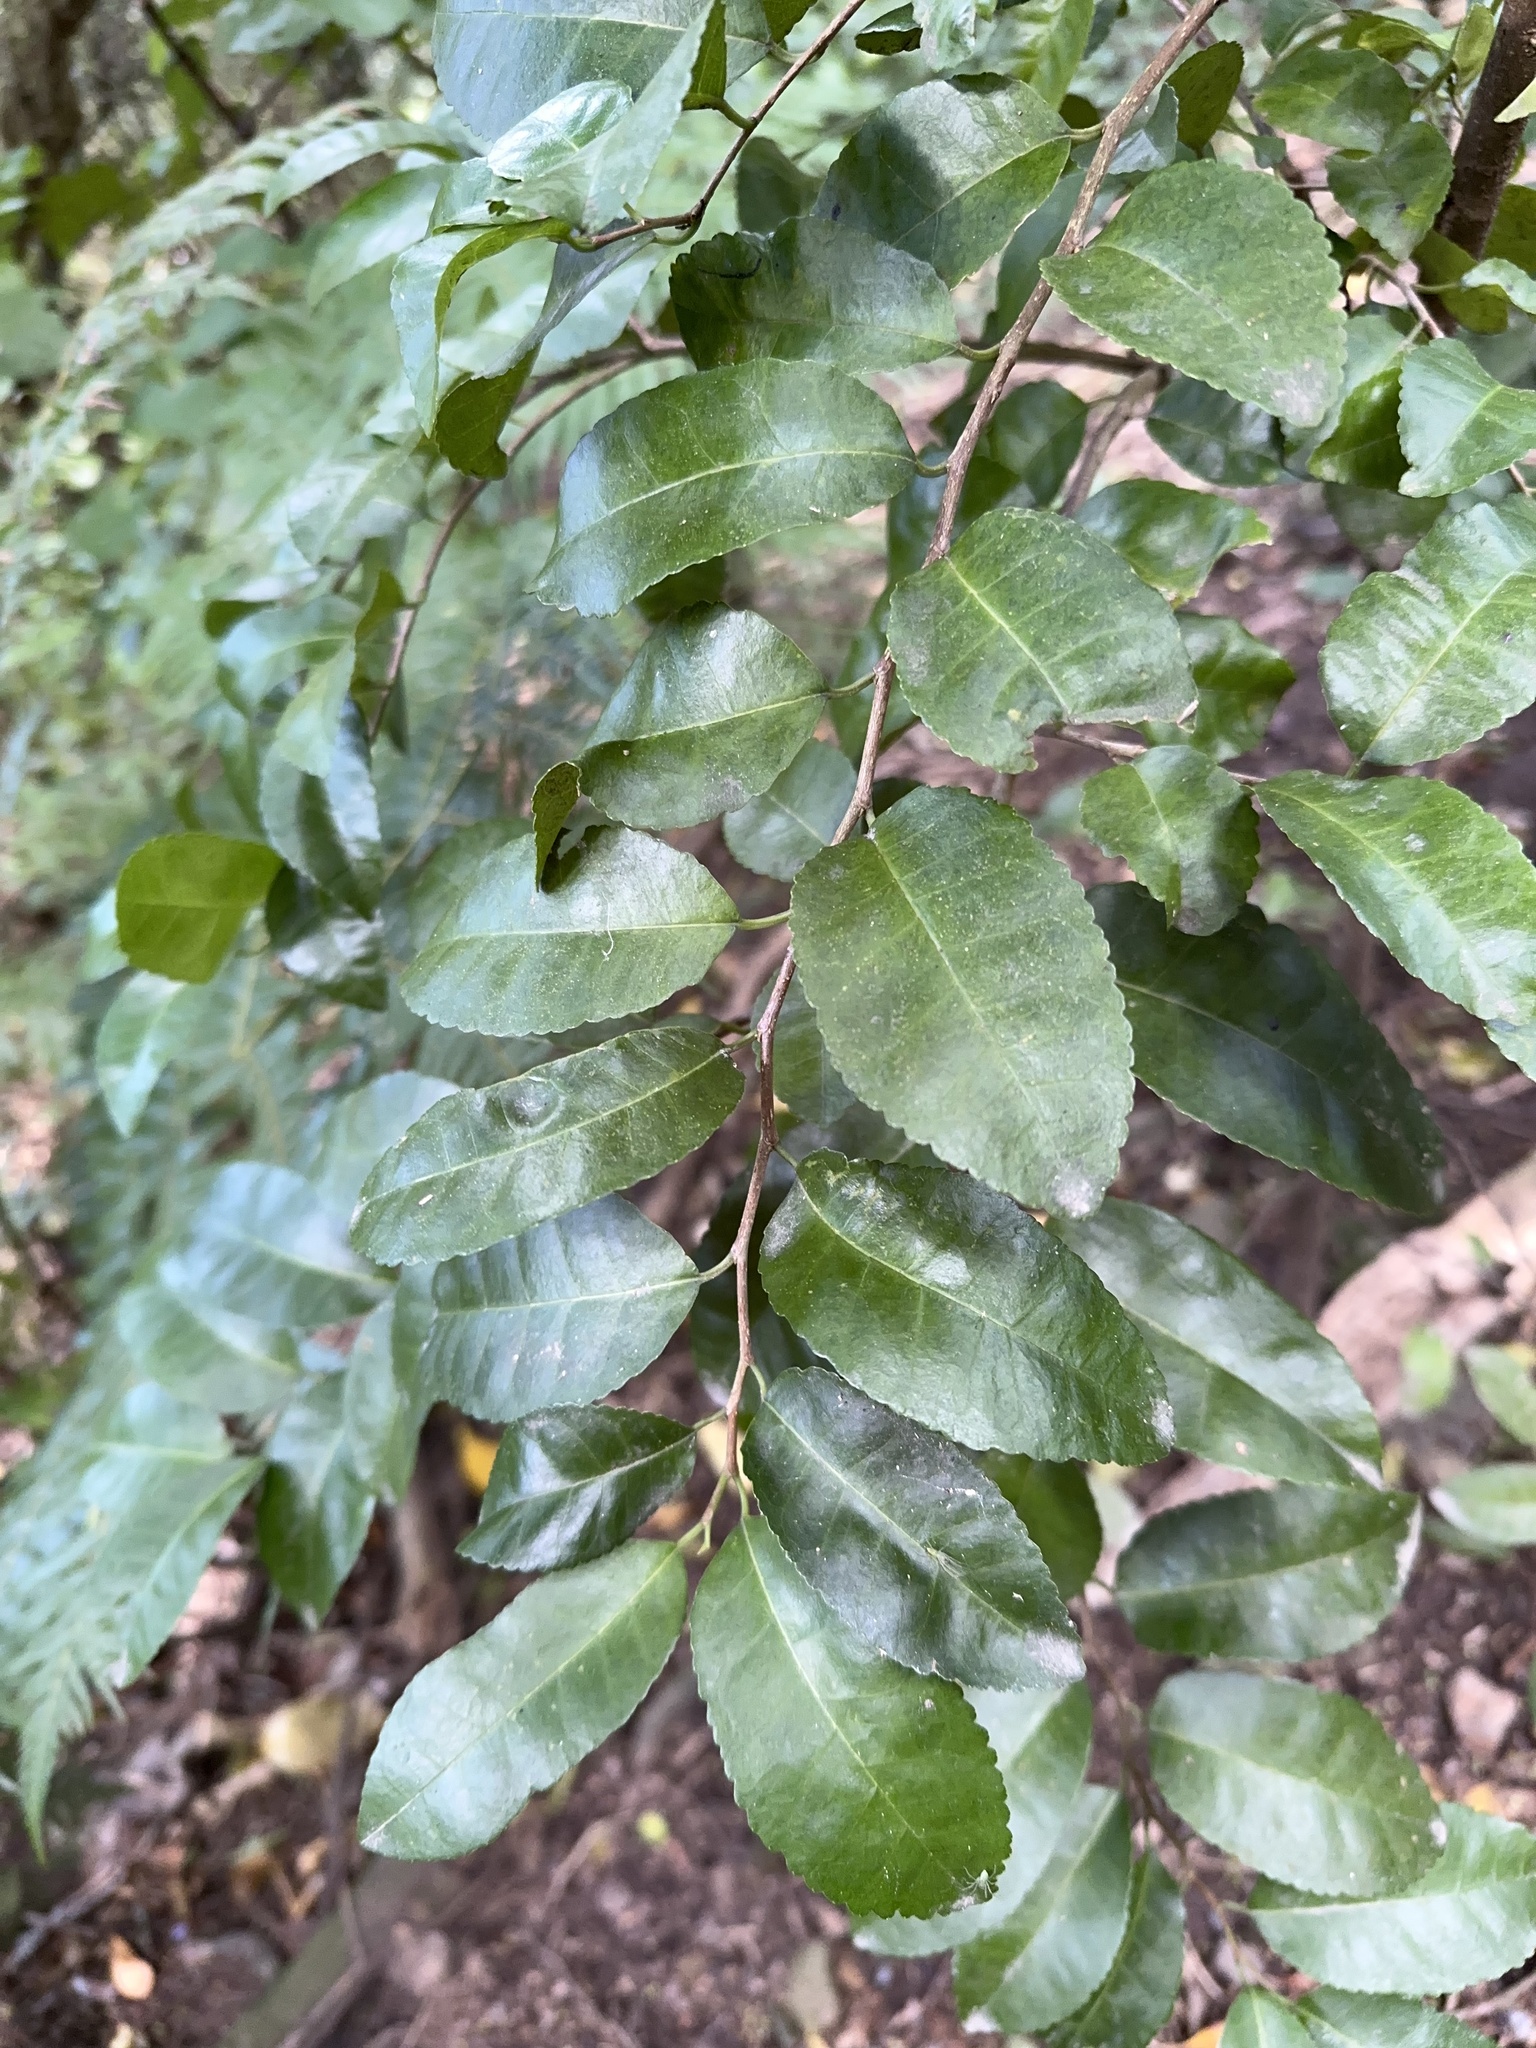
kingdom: Plantae
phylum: Tracheophyta
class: Magnoliopsida
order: Rosales
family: Moraceae
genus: Paratrophis
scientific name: Paratrophis banksii
